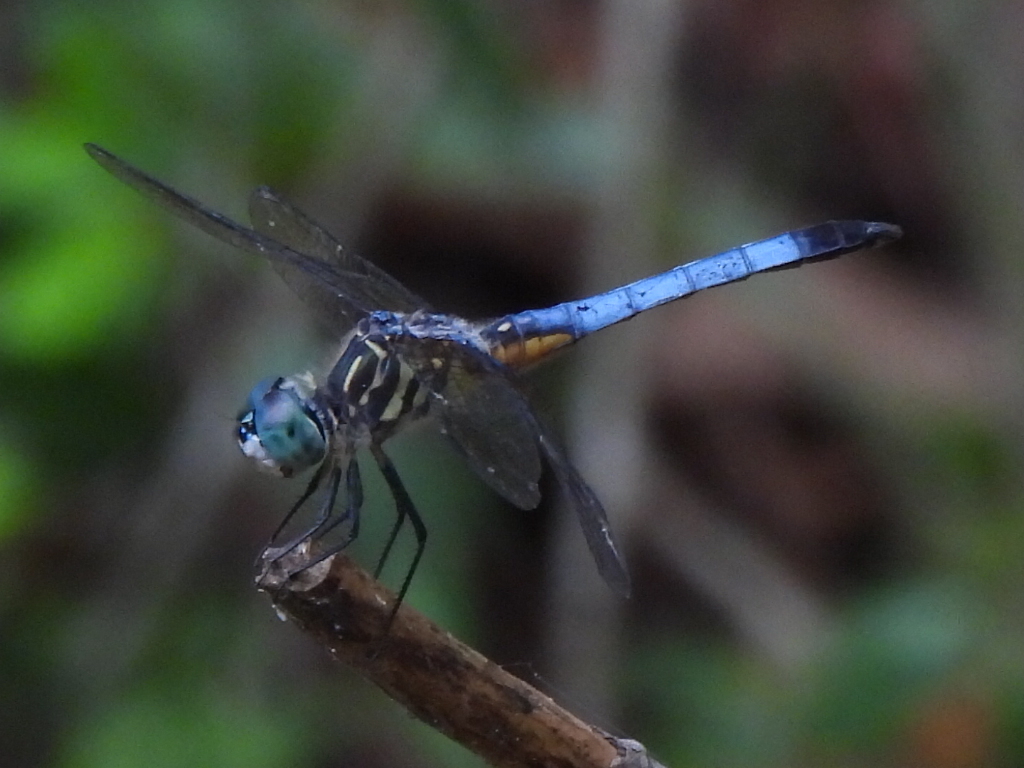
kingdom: Animalia
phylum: Arthropoda
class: Insecta
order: Odonata
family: Libellulidae
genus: Pachydiplax
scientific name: Pachydiplax longipennis
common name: Blue dasher
